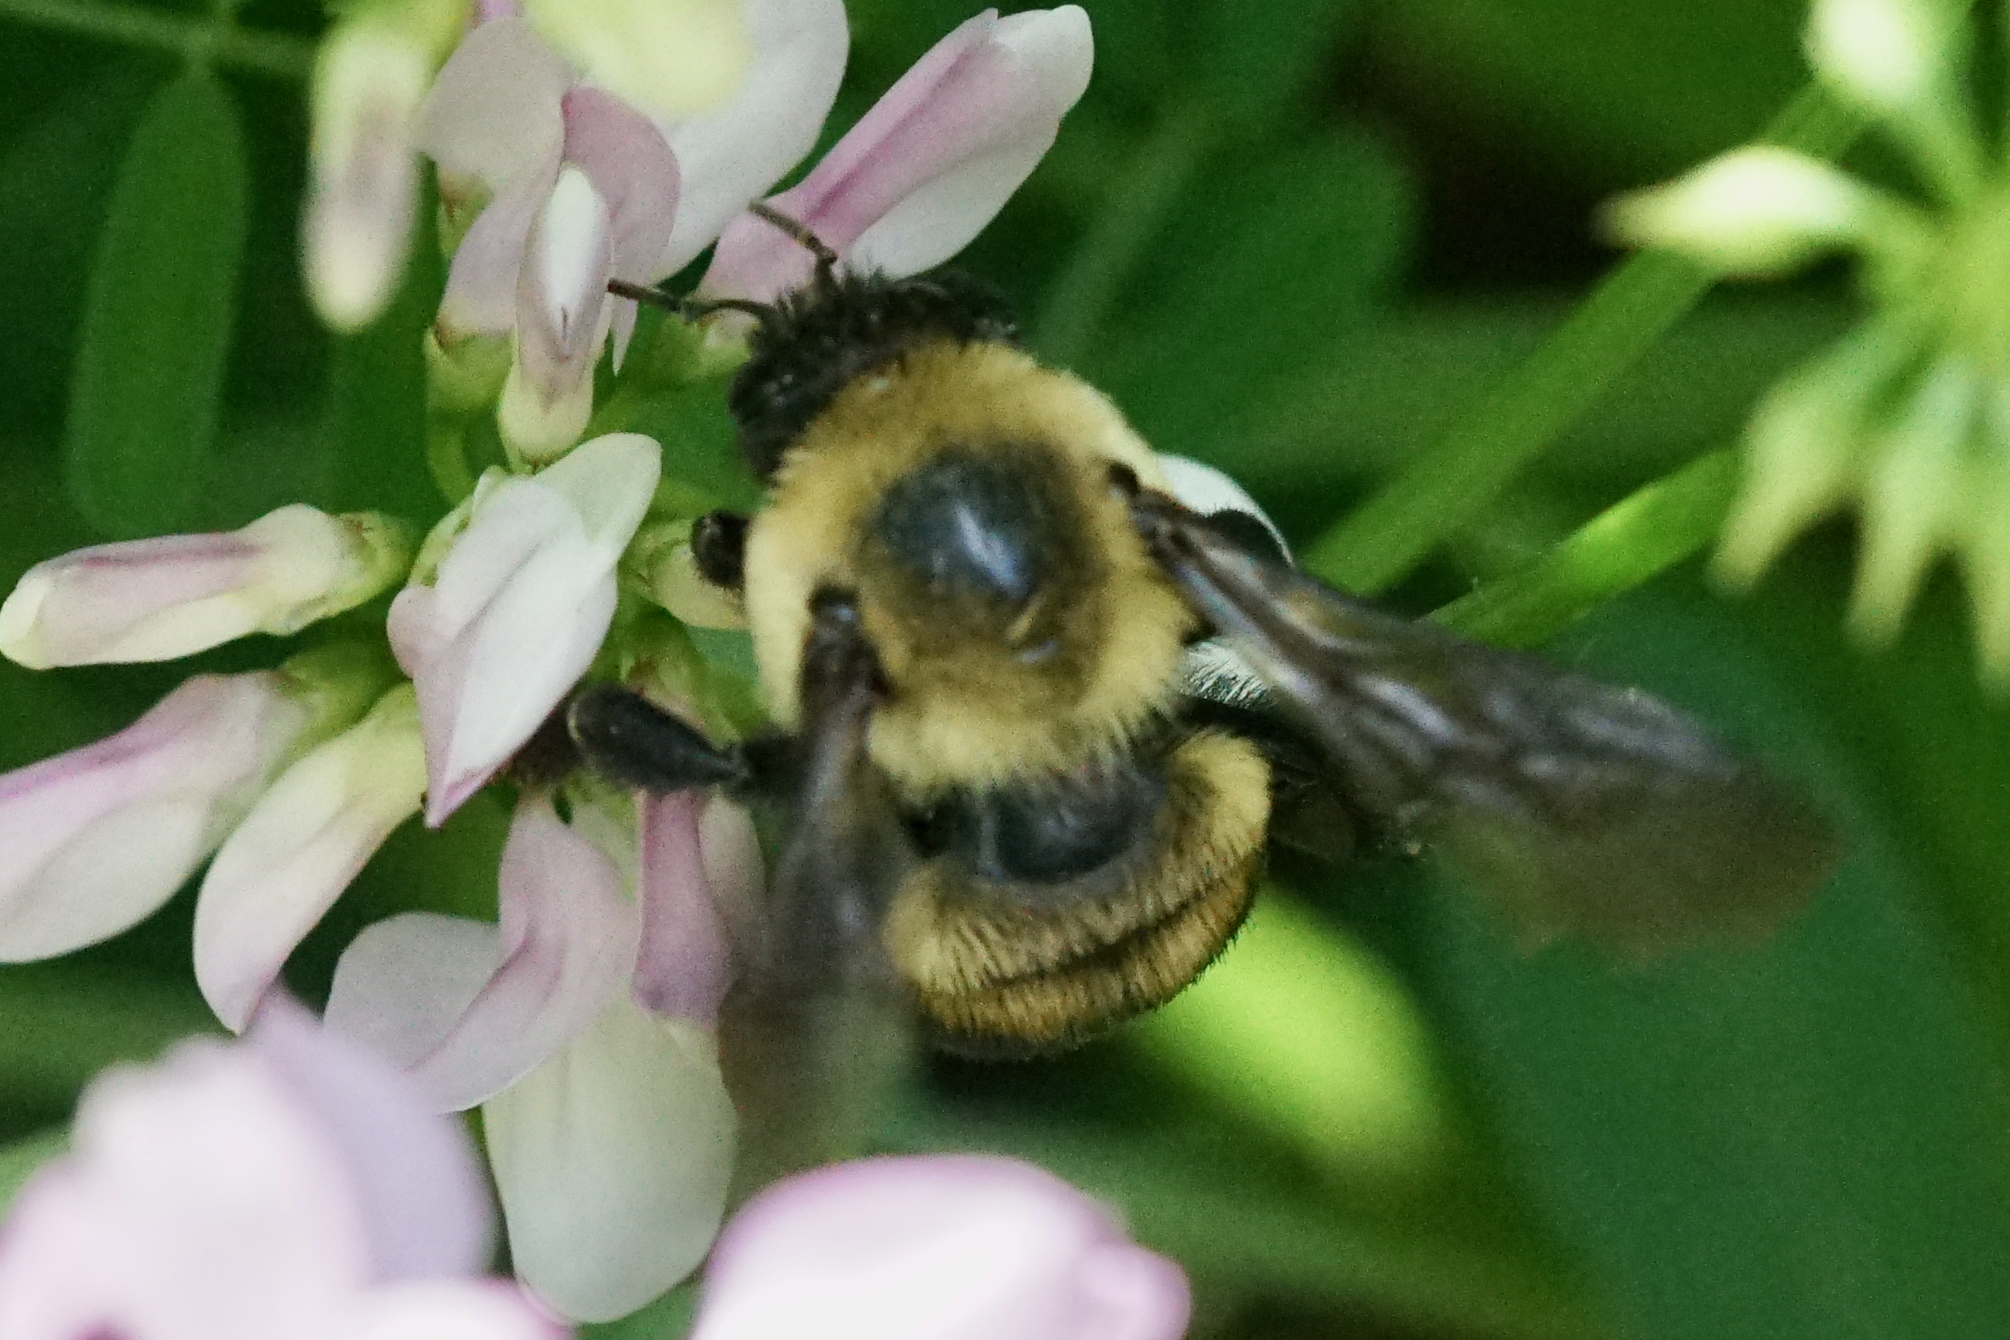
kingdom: Animalia
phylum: Arthropoda
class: Insecta
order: Hymenoptera
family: Apidae
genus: Bombus
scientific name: Bombus griseocollis
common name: Brown-belted bumble bee
